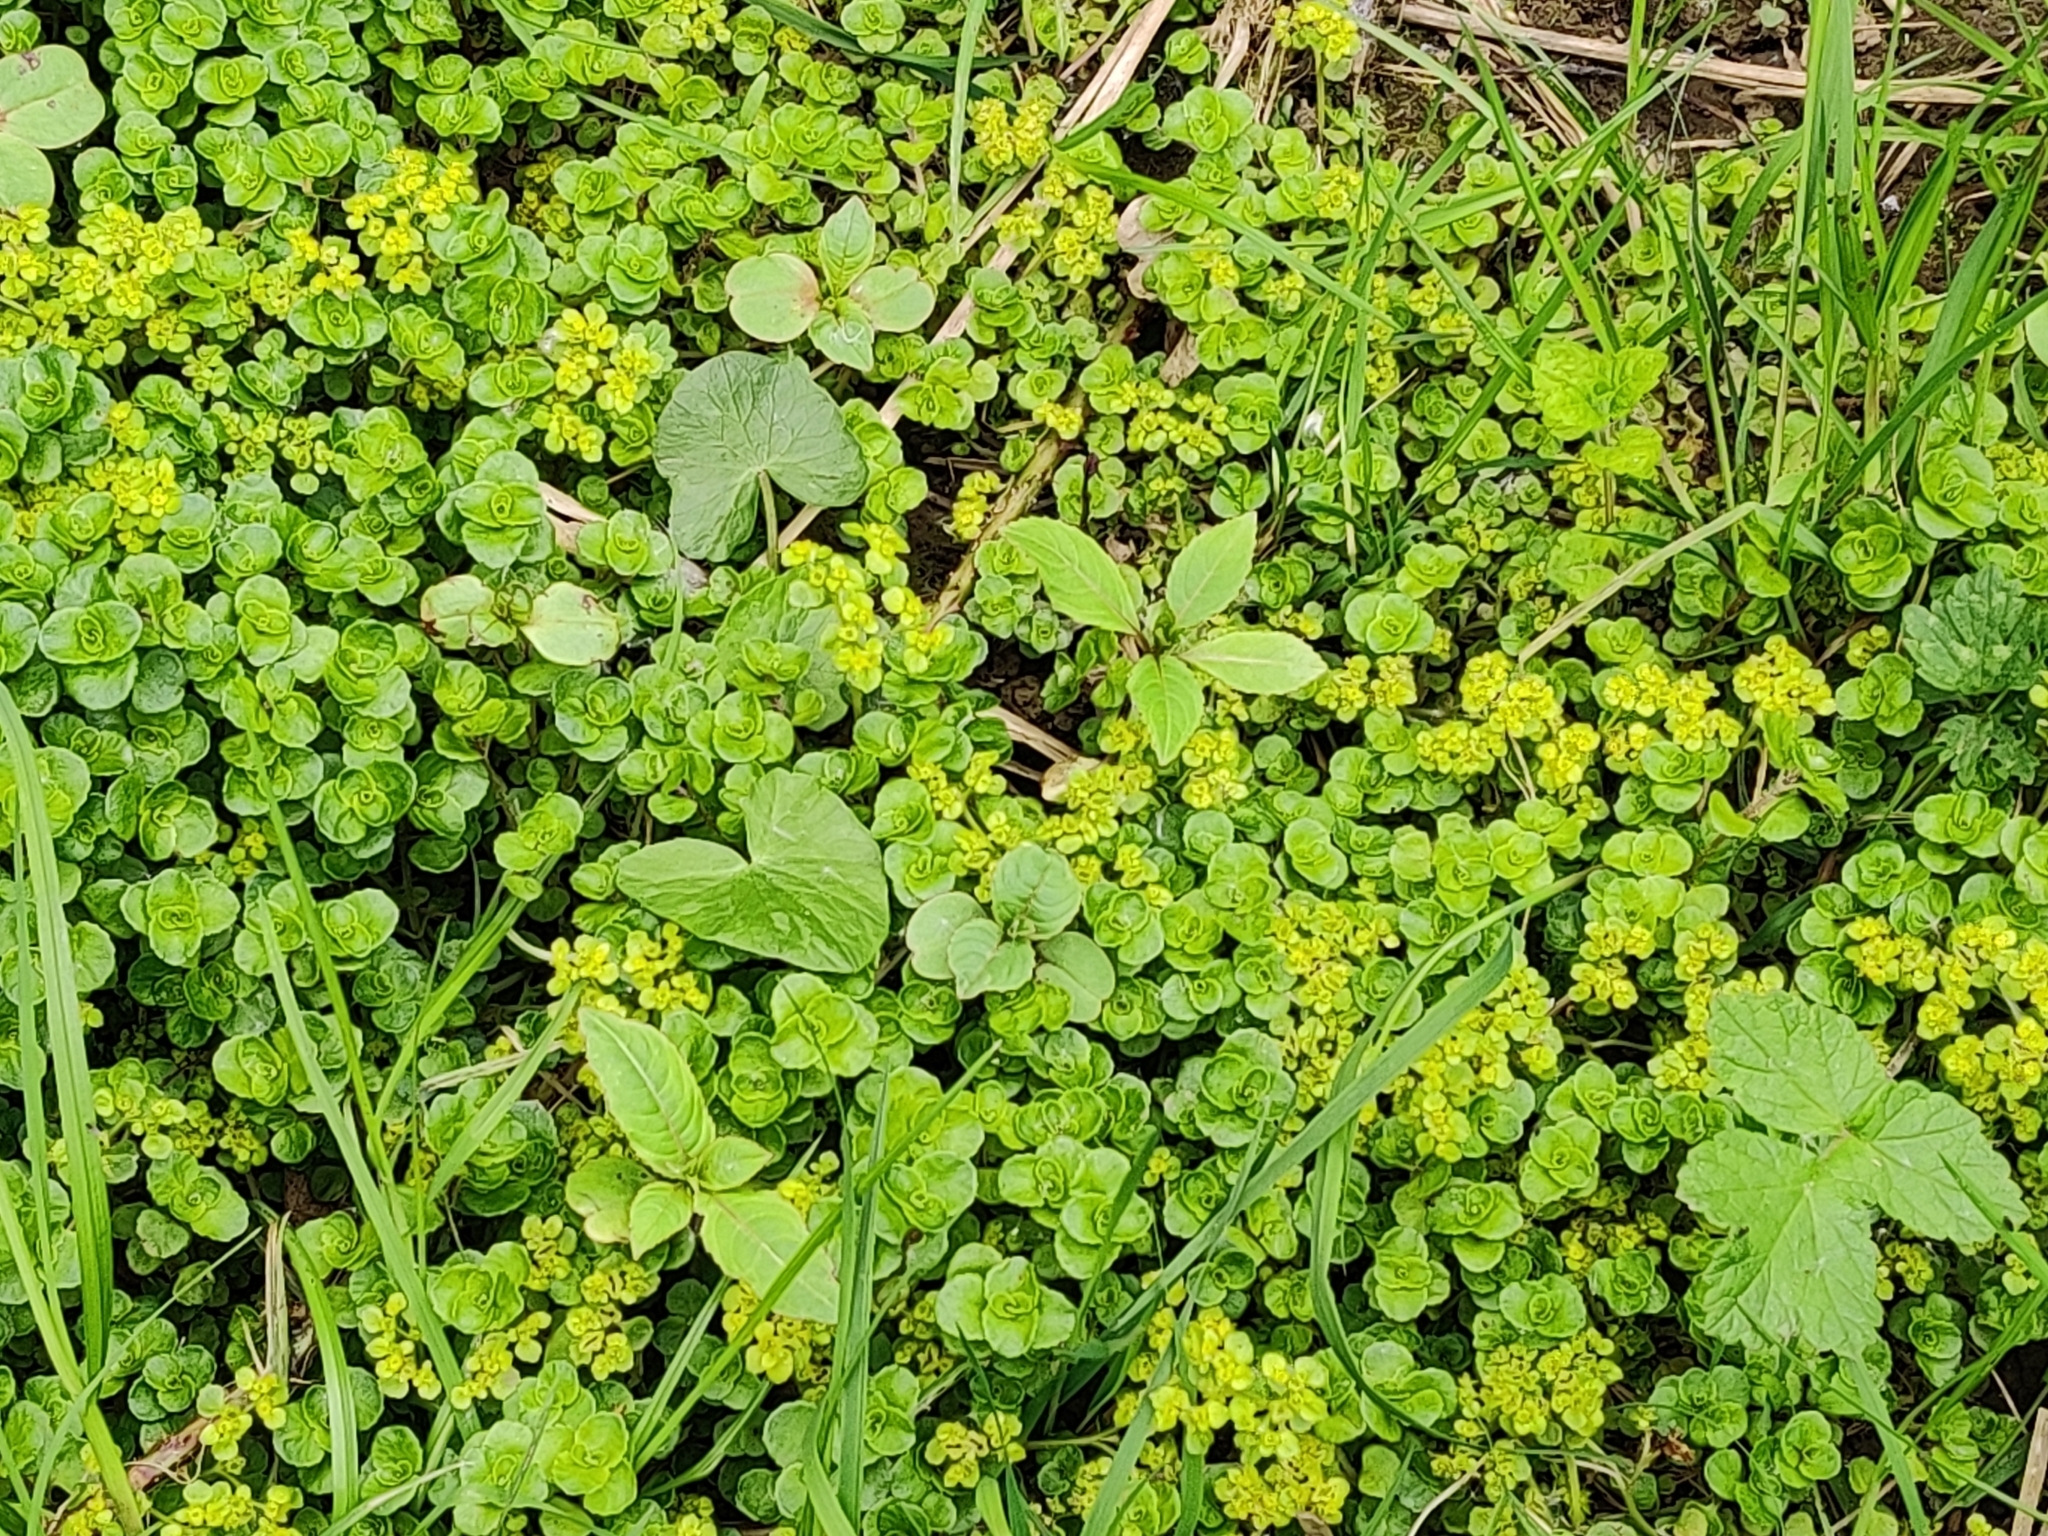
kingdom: Plantae
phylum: Tracheophyta
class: Magnoliopsida
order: Saxifragales
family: Saxifragaceae
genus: Chrysosplenium
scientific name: Chrysosplenium oppositifolium
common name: Opposite-leaved golden-saxifrage
